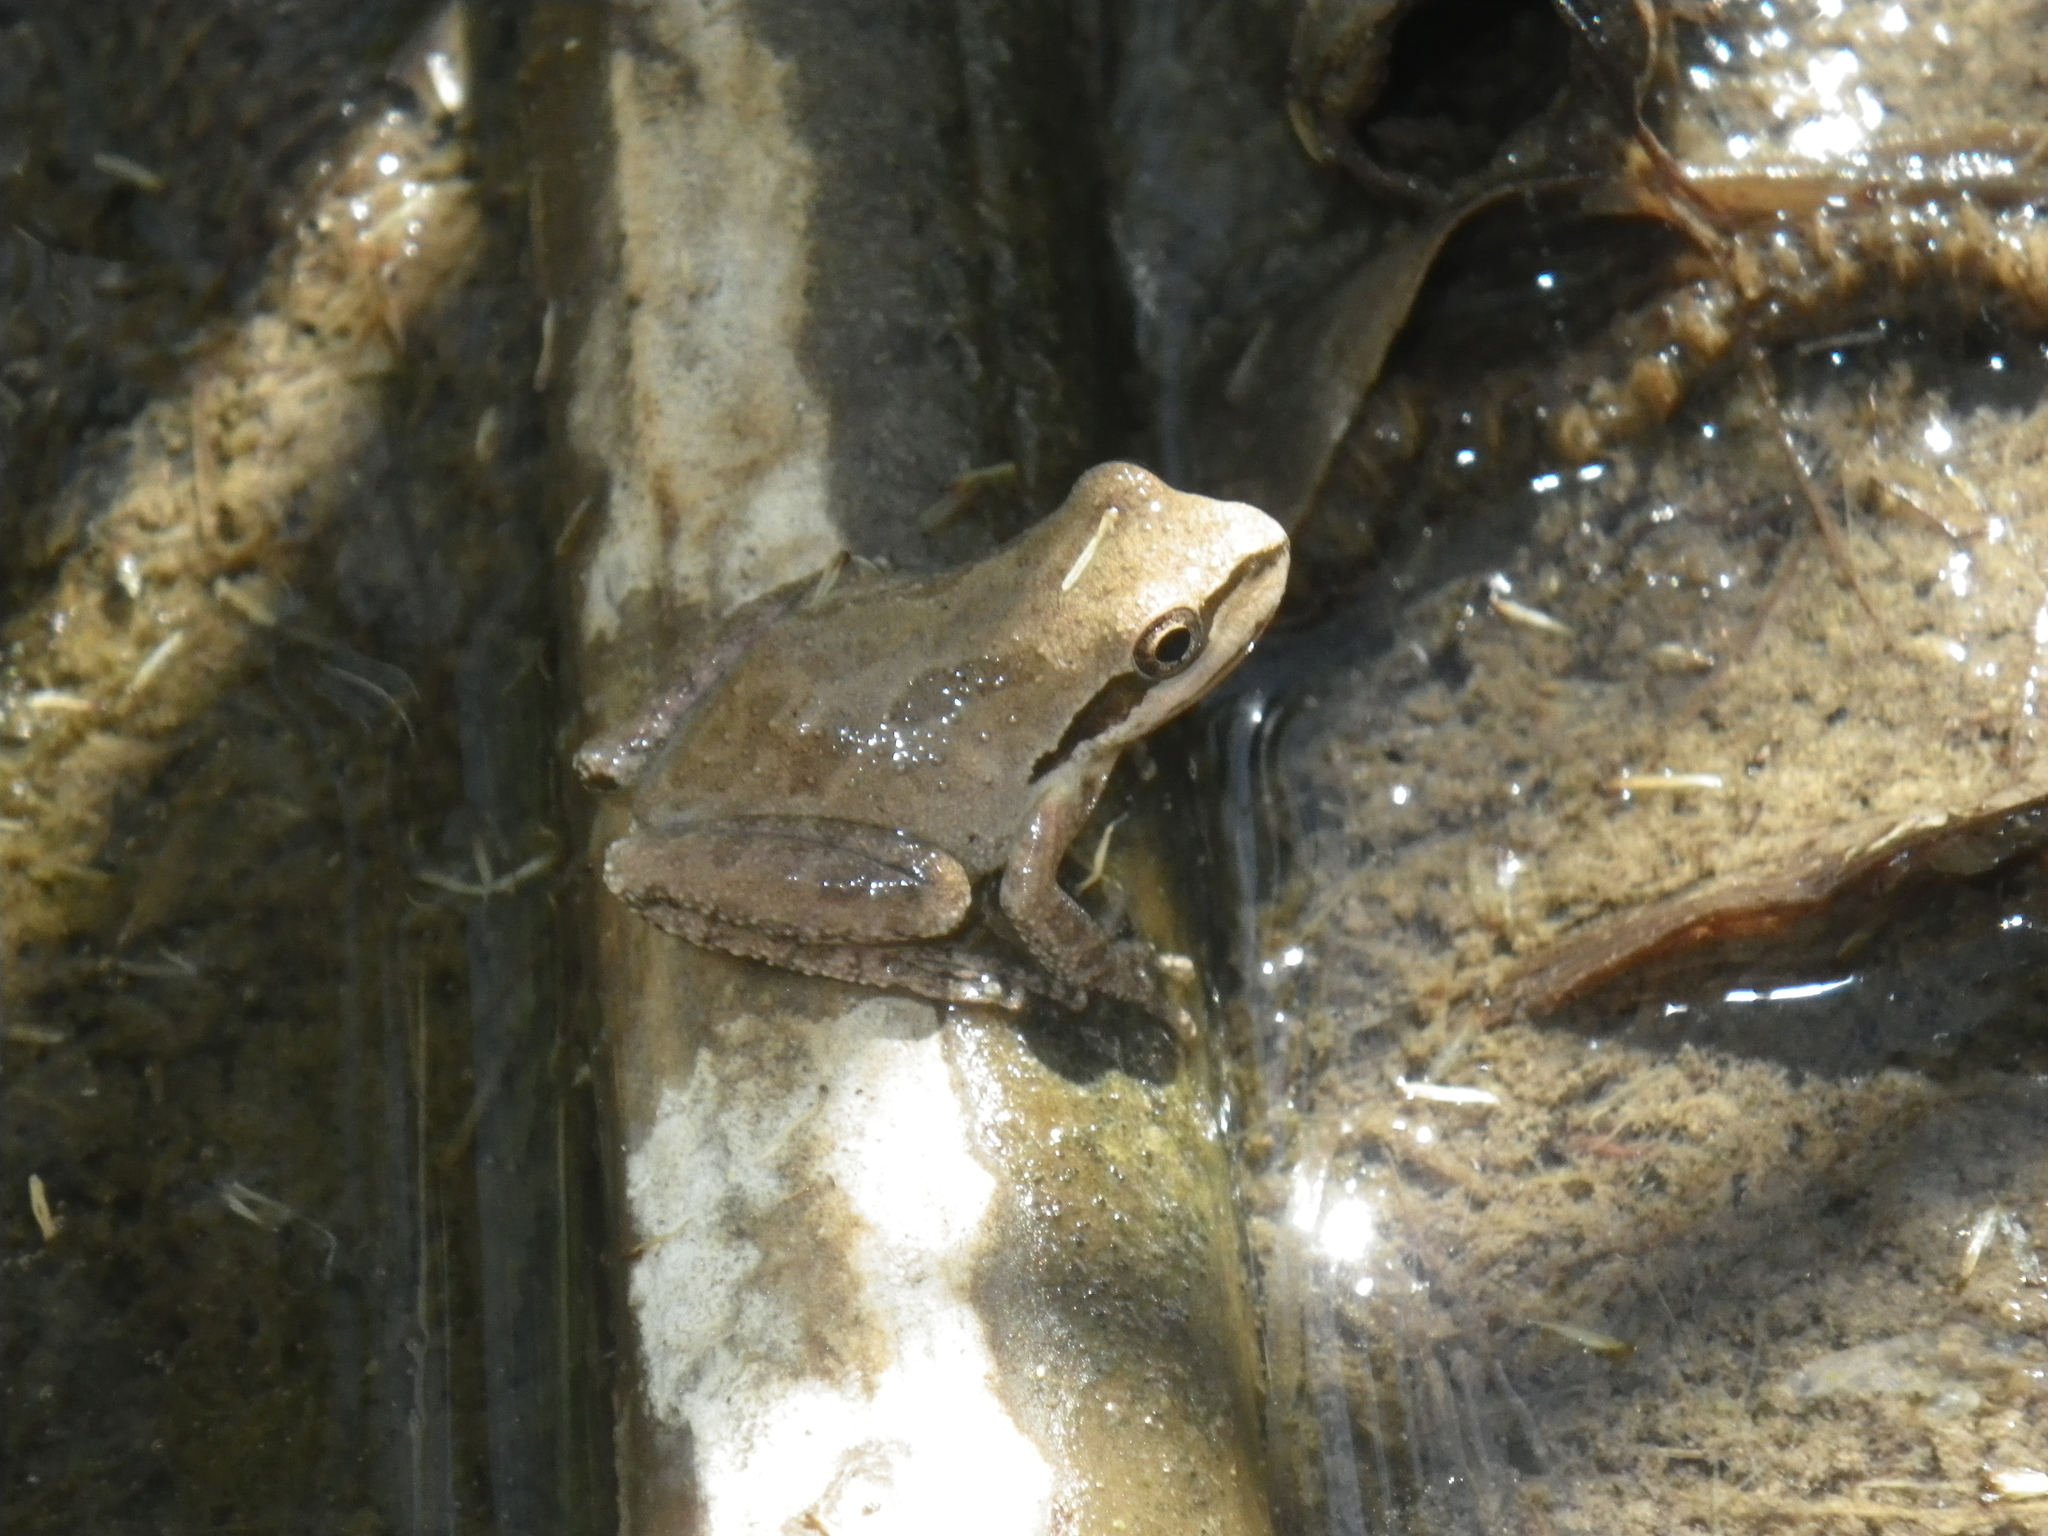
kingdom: Animalia
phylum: Chordata
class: Amphibia
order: Anura
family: Hylidae
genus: Pseudacris
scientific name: Pseudacris regilla
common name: Pacific chorus frog
